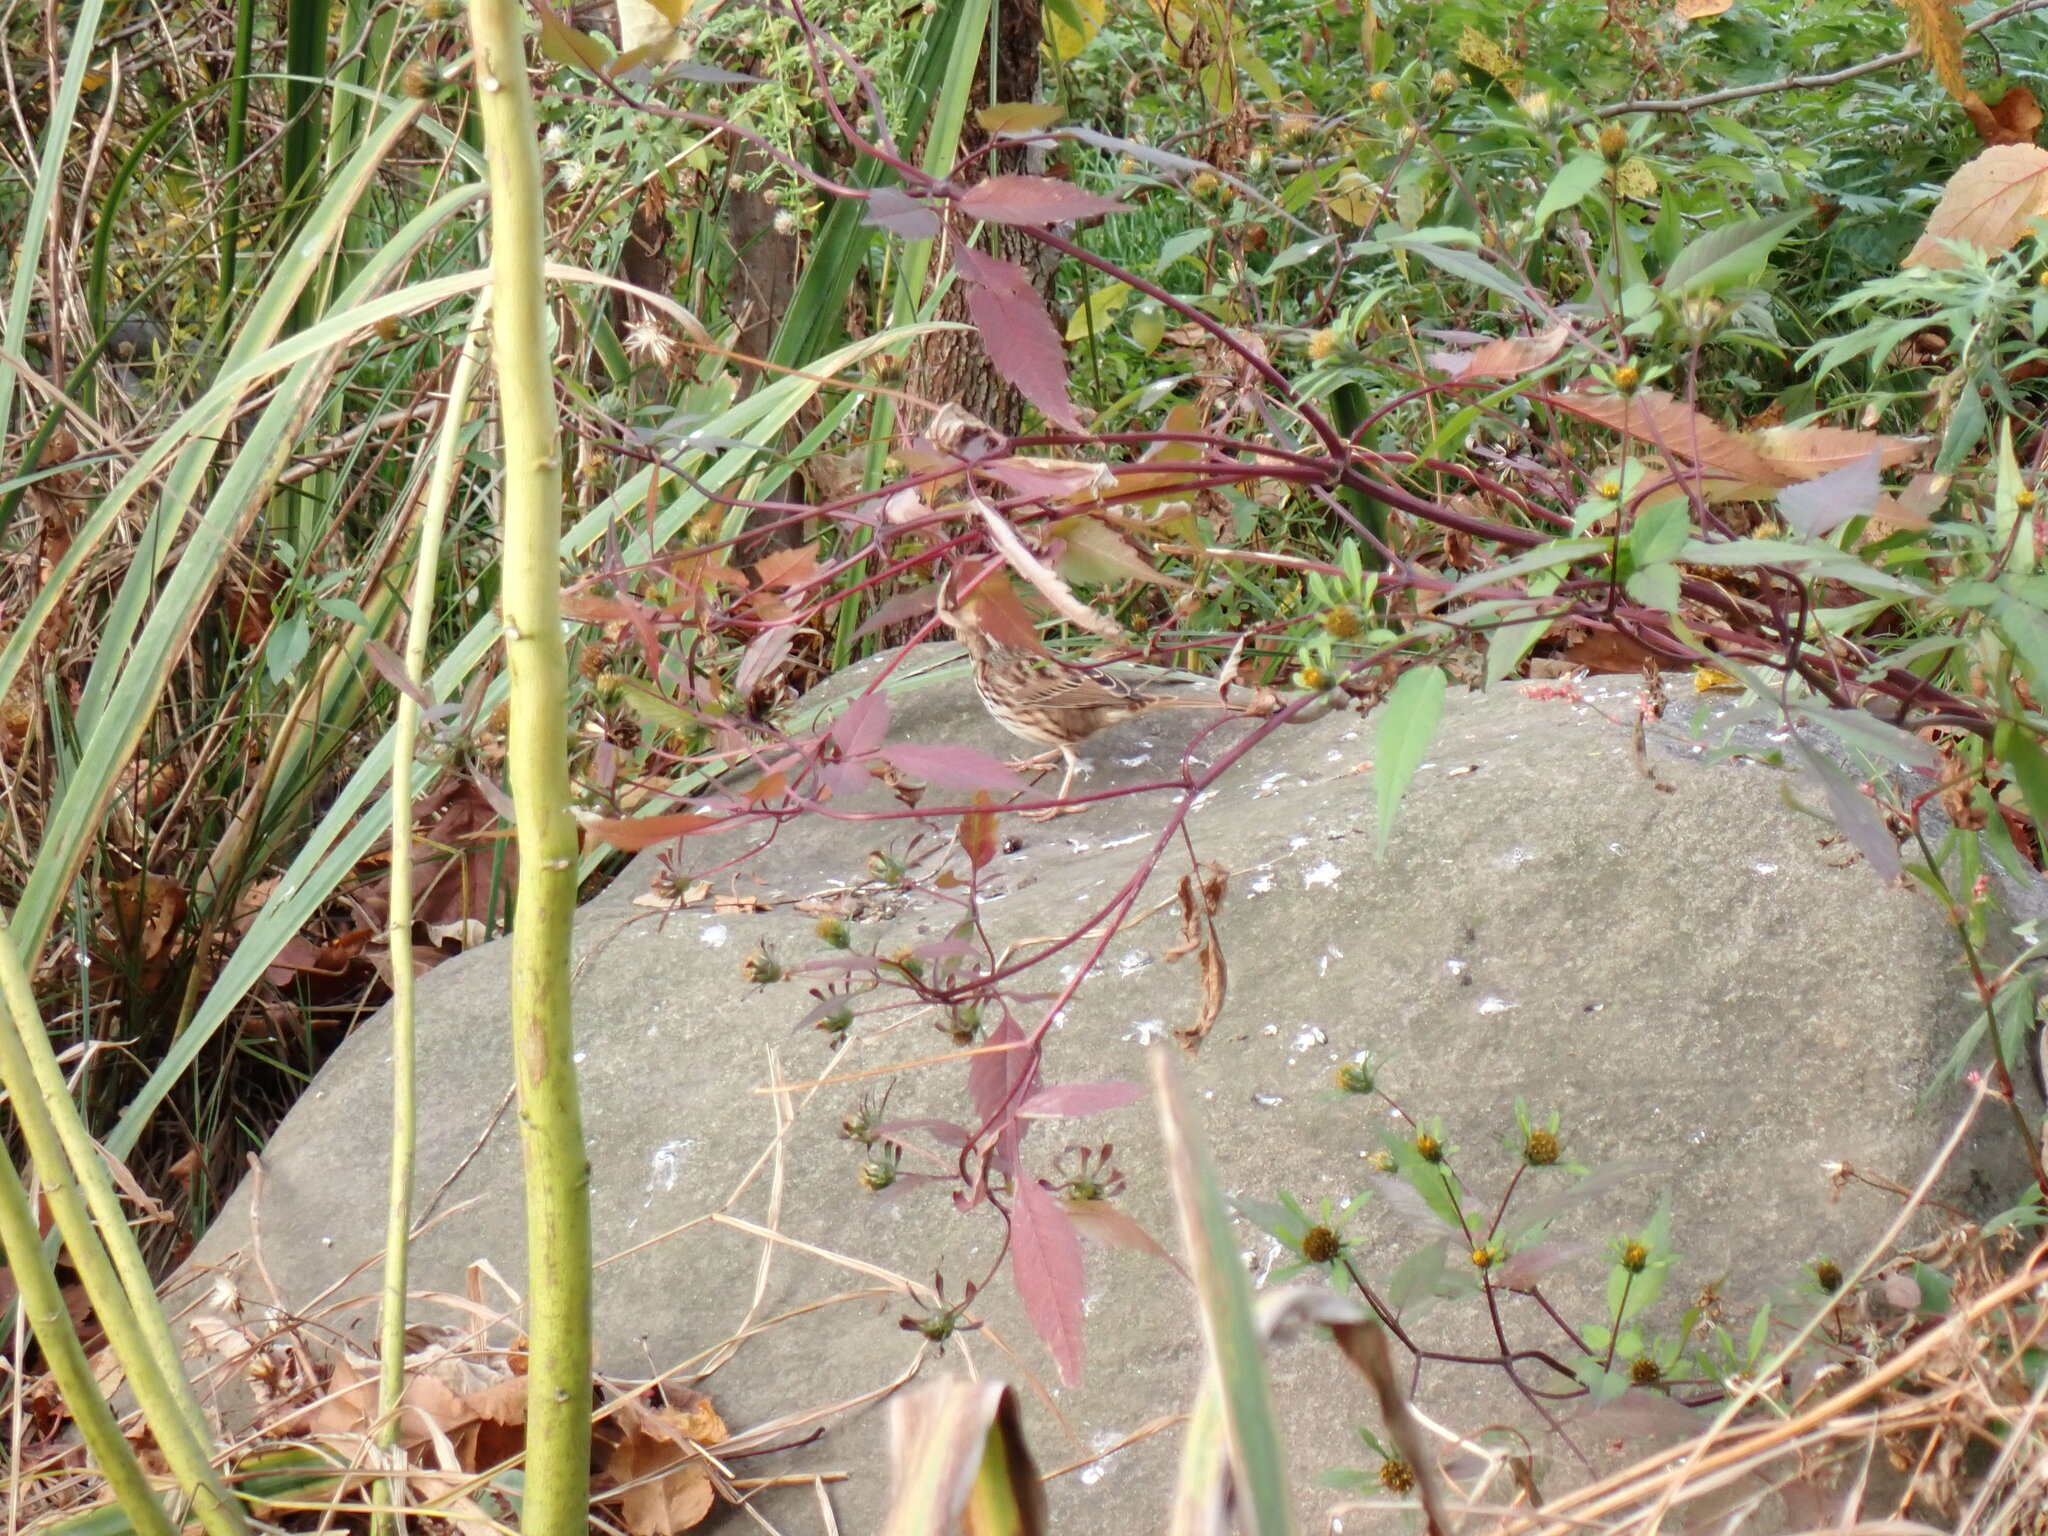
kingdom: Animalia
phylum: Chordata
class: Aves
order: Passeriformes
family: Passerellidae
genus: Melospiza
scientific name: Melospiza melodia
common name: Song sparrow
